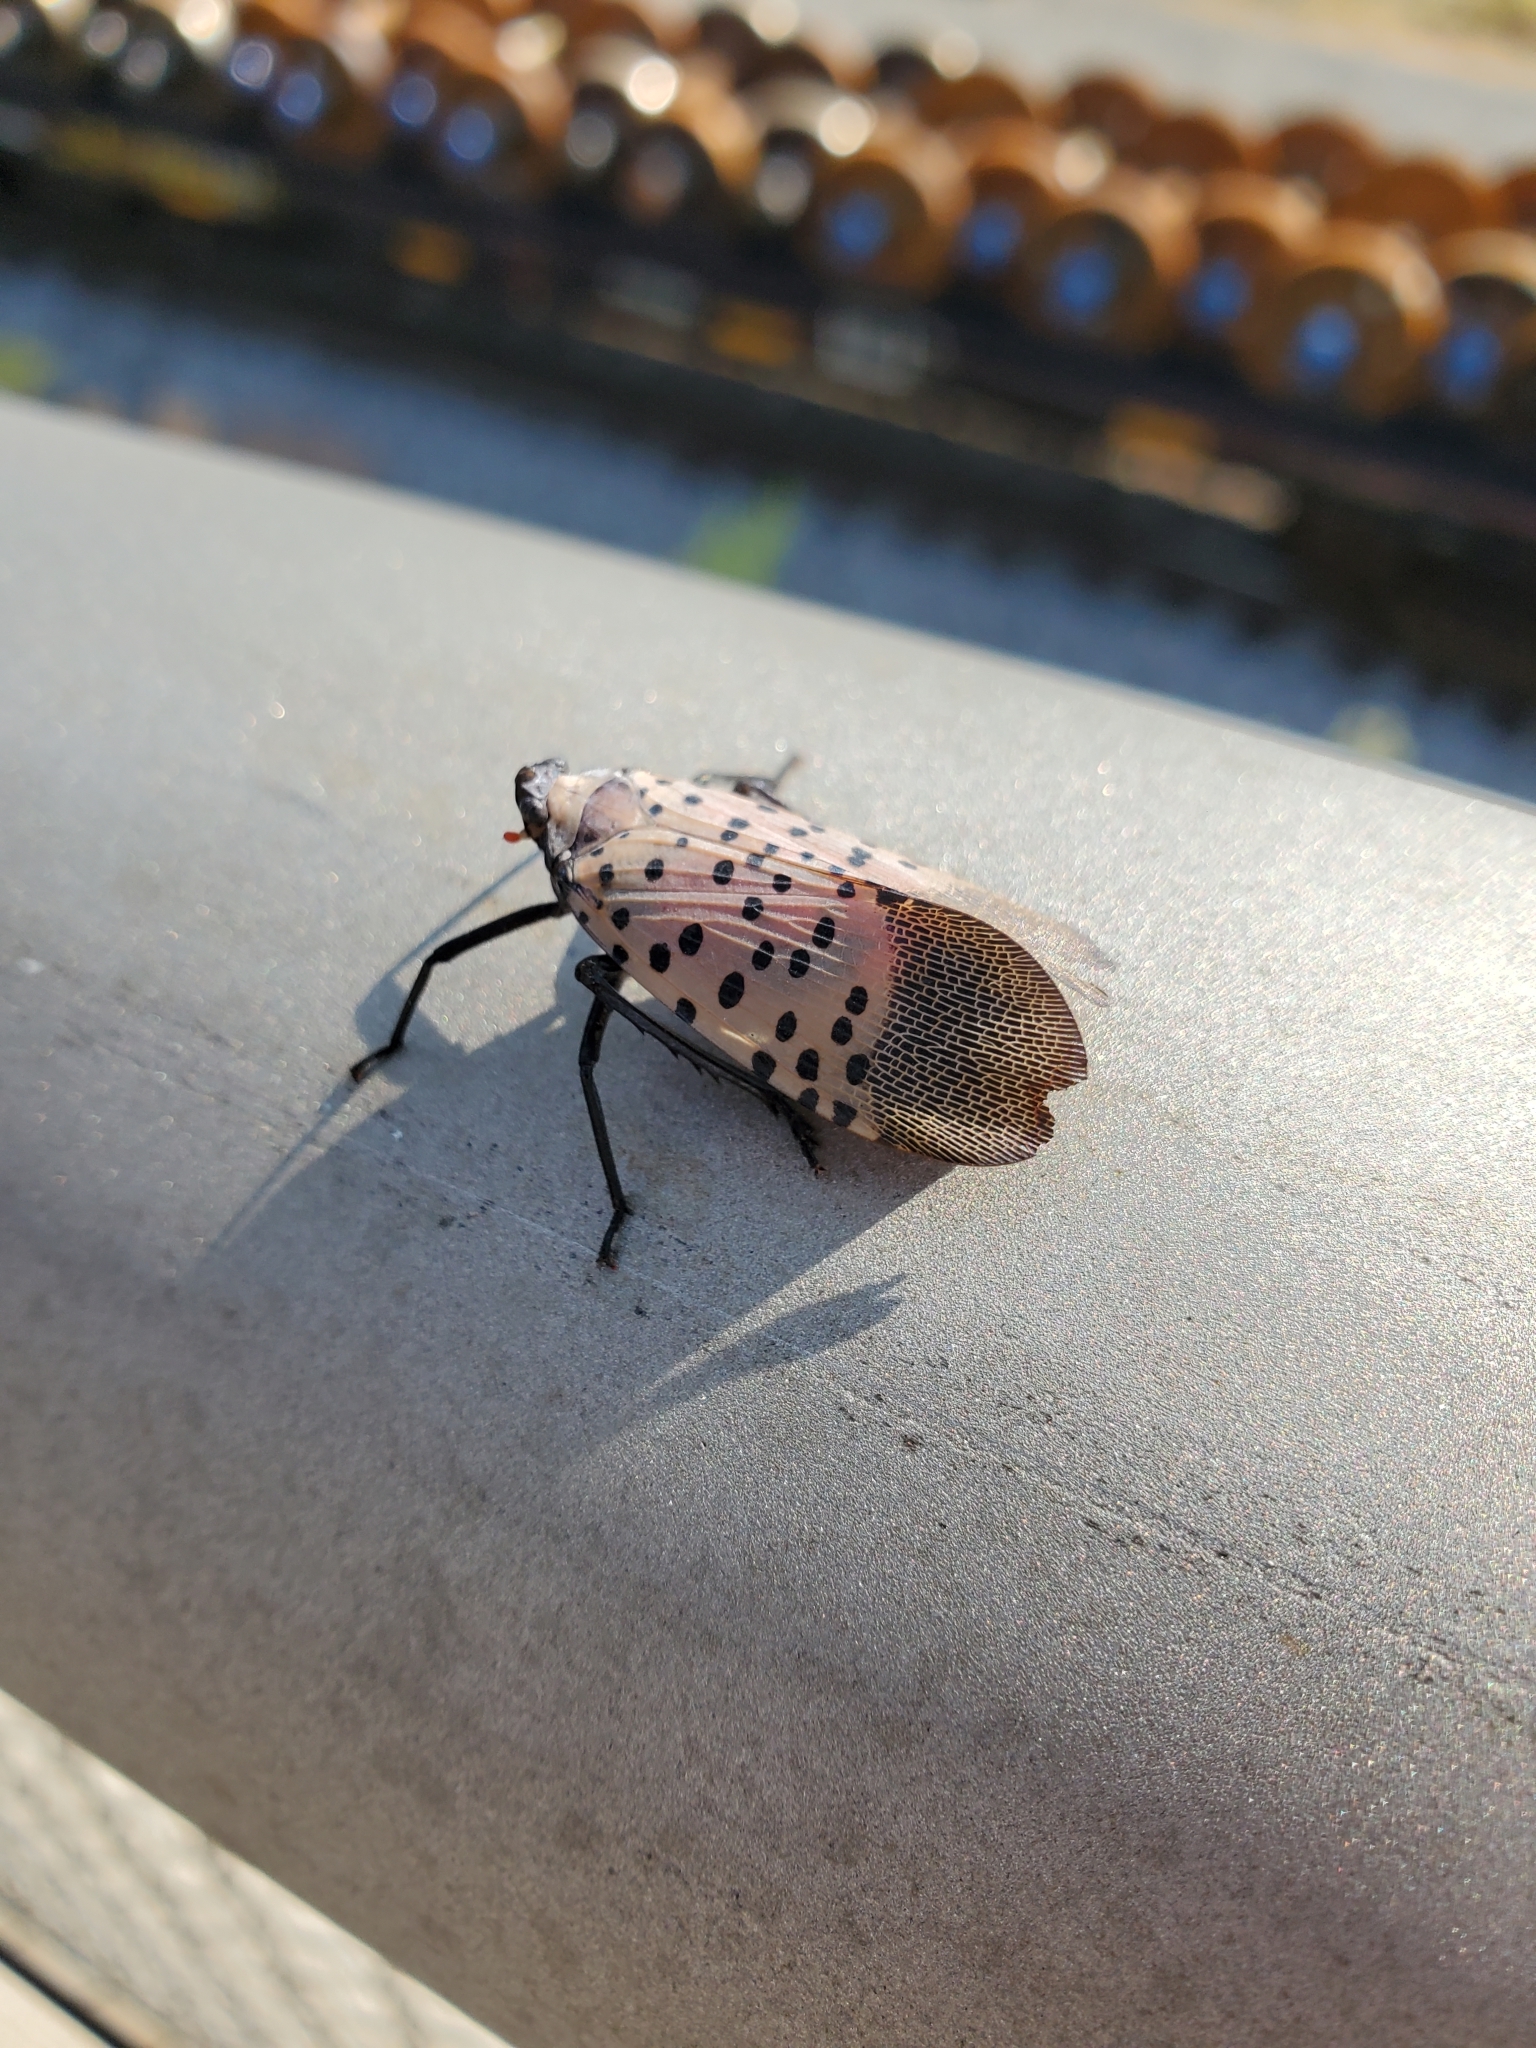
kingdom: Animalia
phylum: Arthropoda
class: Insecta
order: Hemiptera
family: Fulgoridae
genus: Lycorma
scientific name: Lycorma delicatula
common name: Spotted lanternfly
